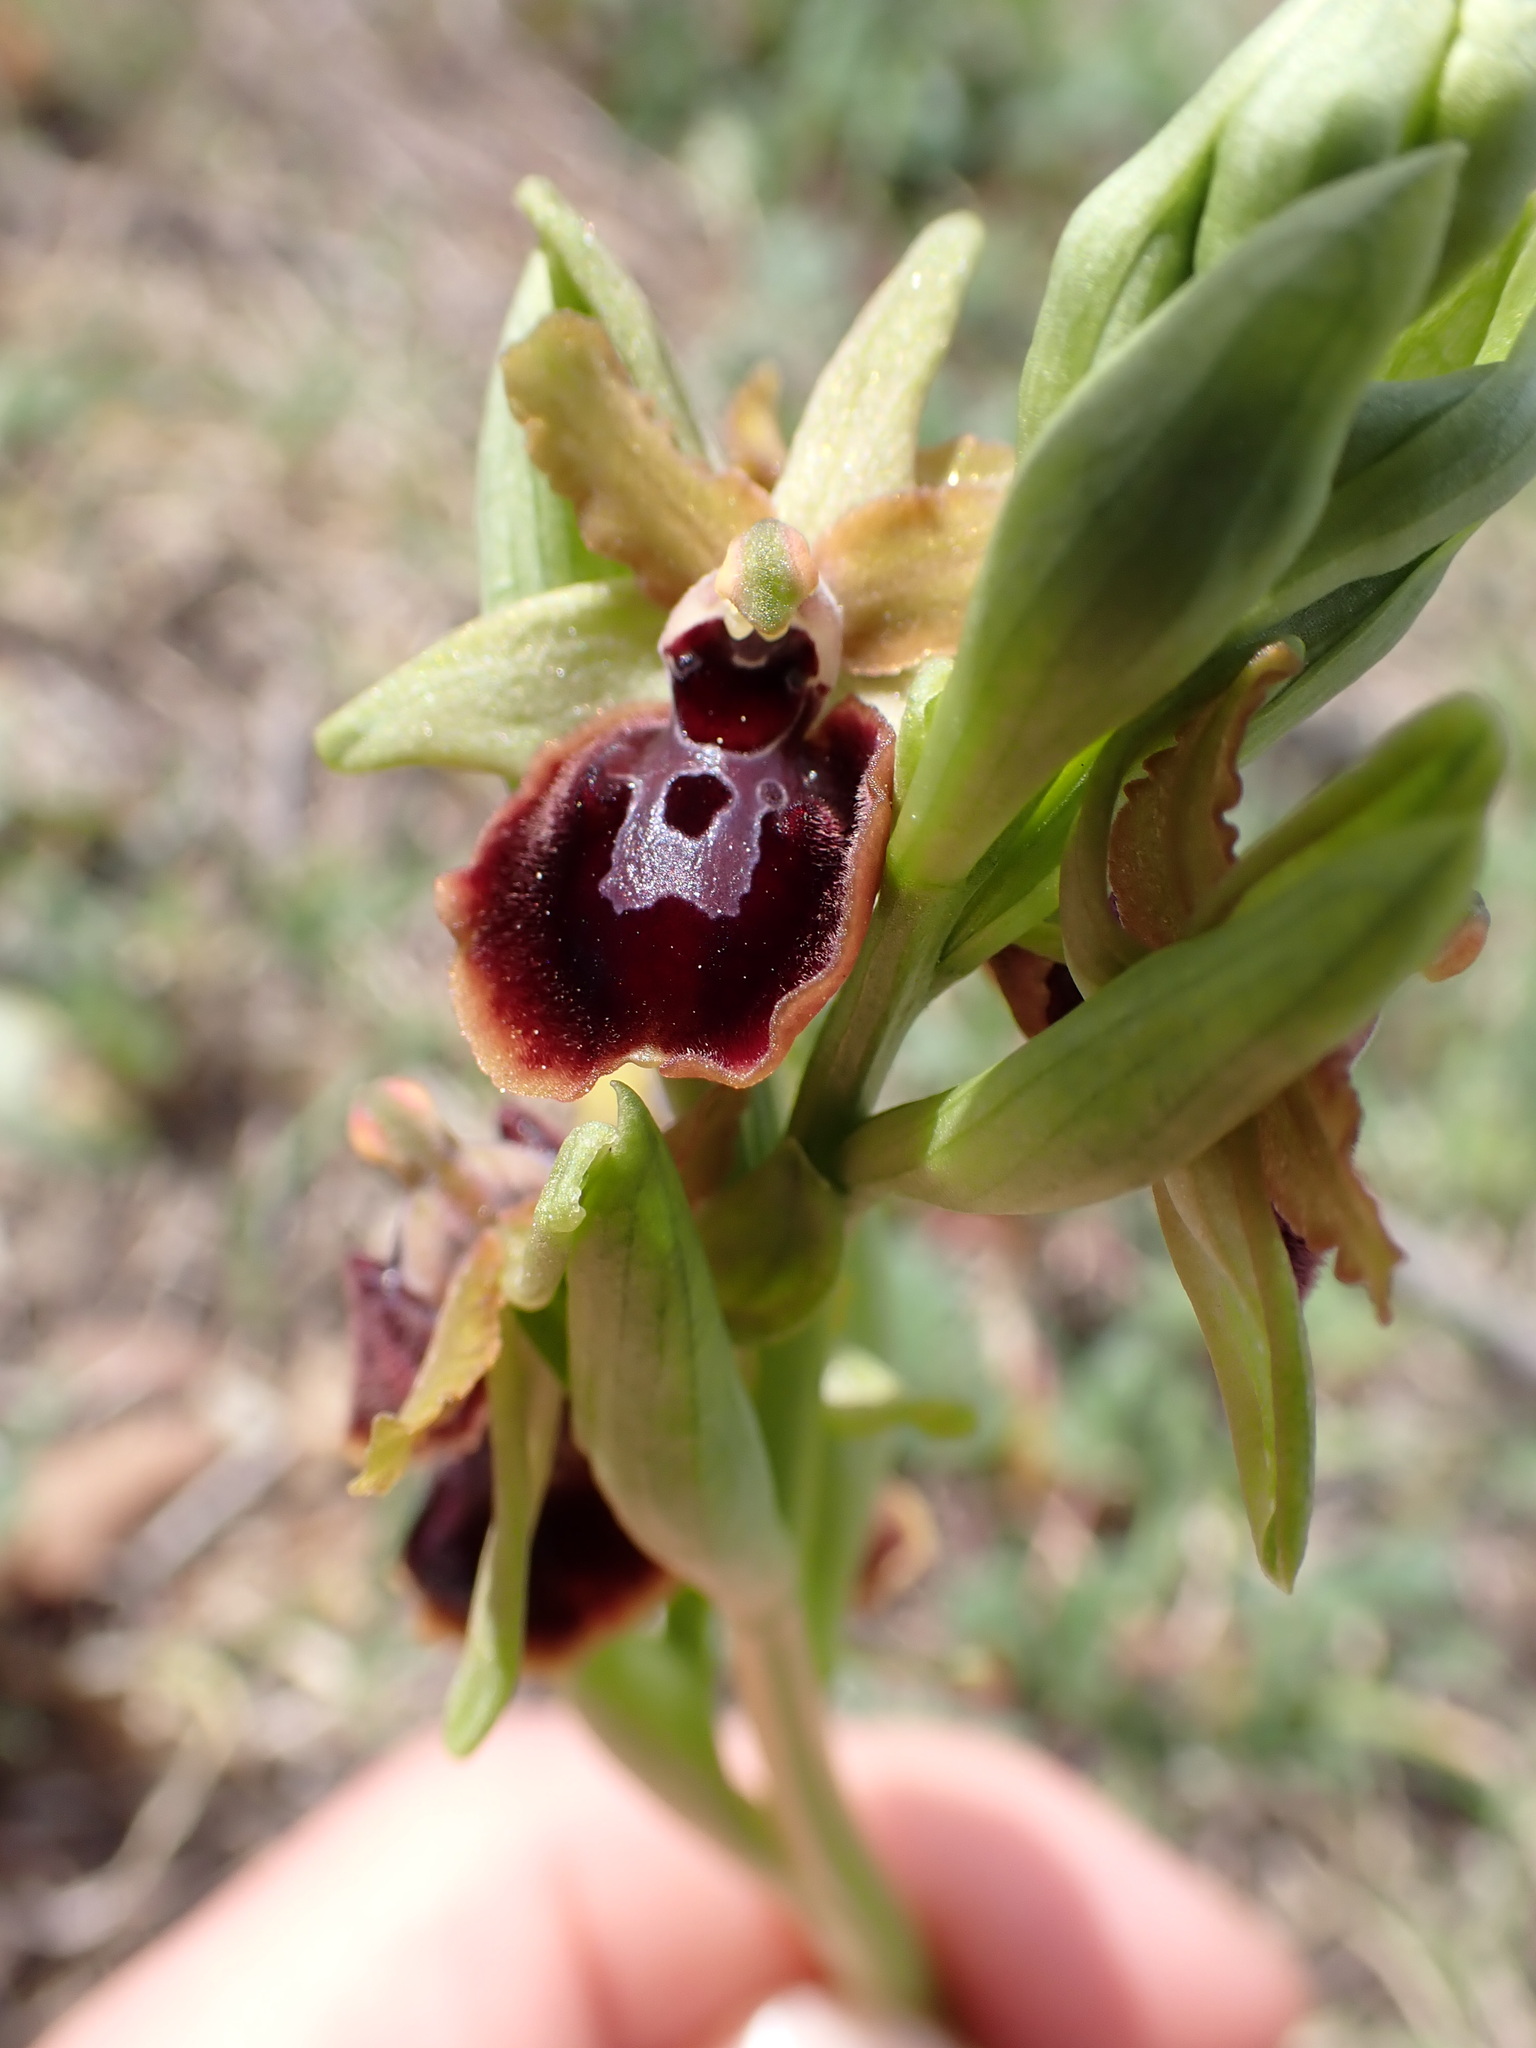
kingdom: Plantae
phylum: Tracheophyta
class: Liliopsida
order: Asparagales
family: Orchidaceae
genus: Ophrys
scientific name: Ophrys sphegodes
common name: Early spider-orchid
